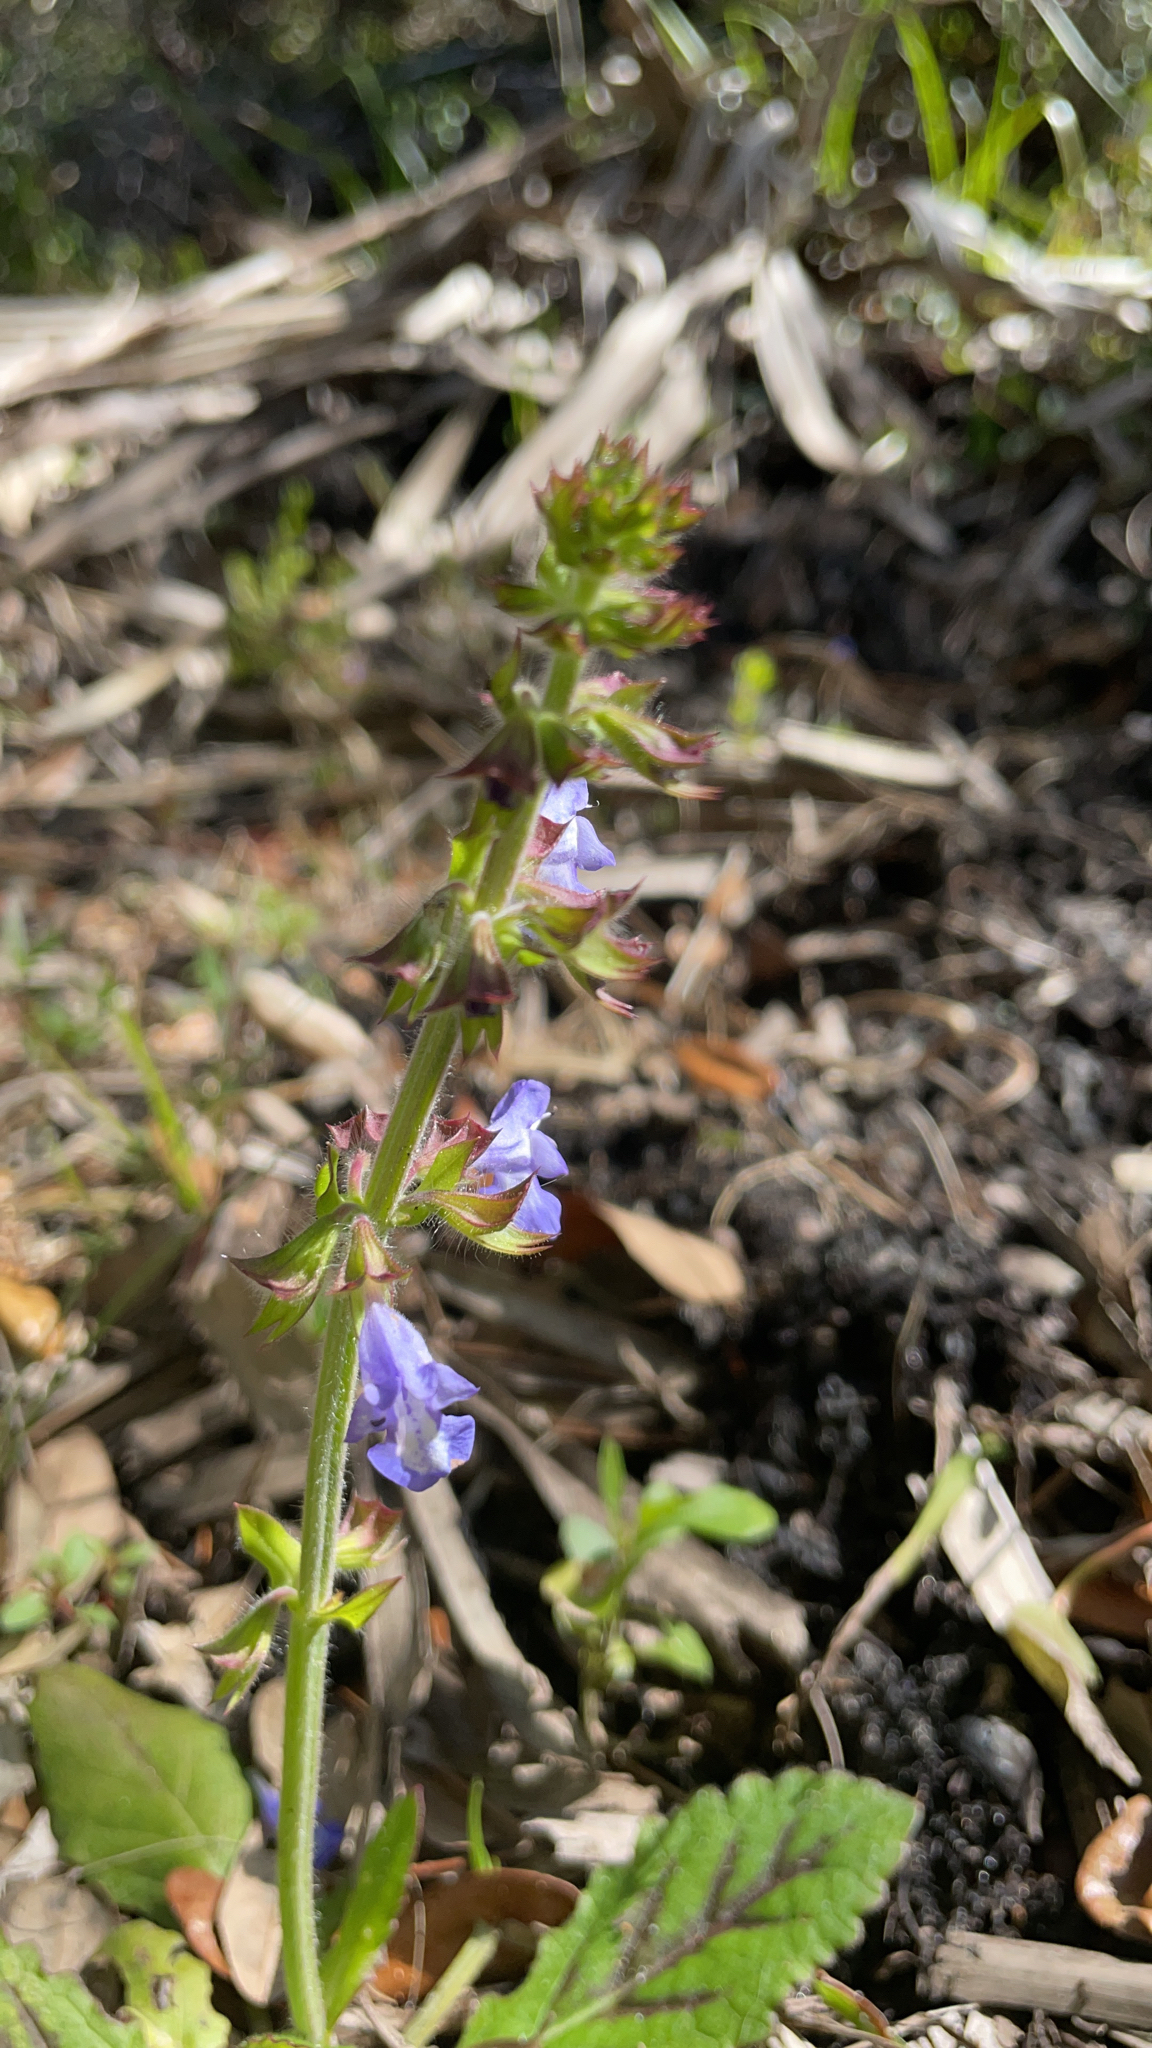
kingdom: Plantae
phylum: Tracheophyta
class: Magnoliopsida
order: Lamiales
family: Lamiaceae
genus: Salvia
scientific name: Salvia lyrata
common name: Cancerweed
